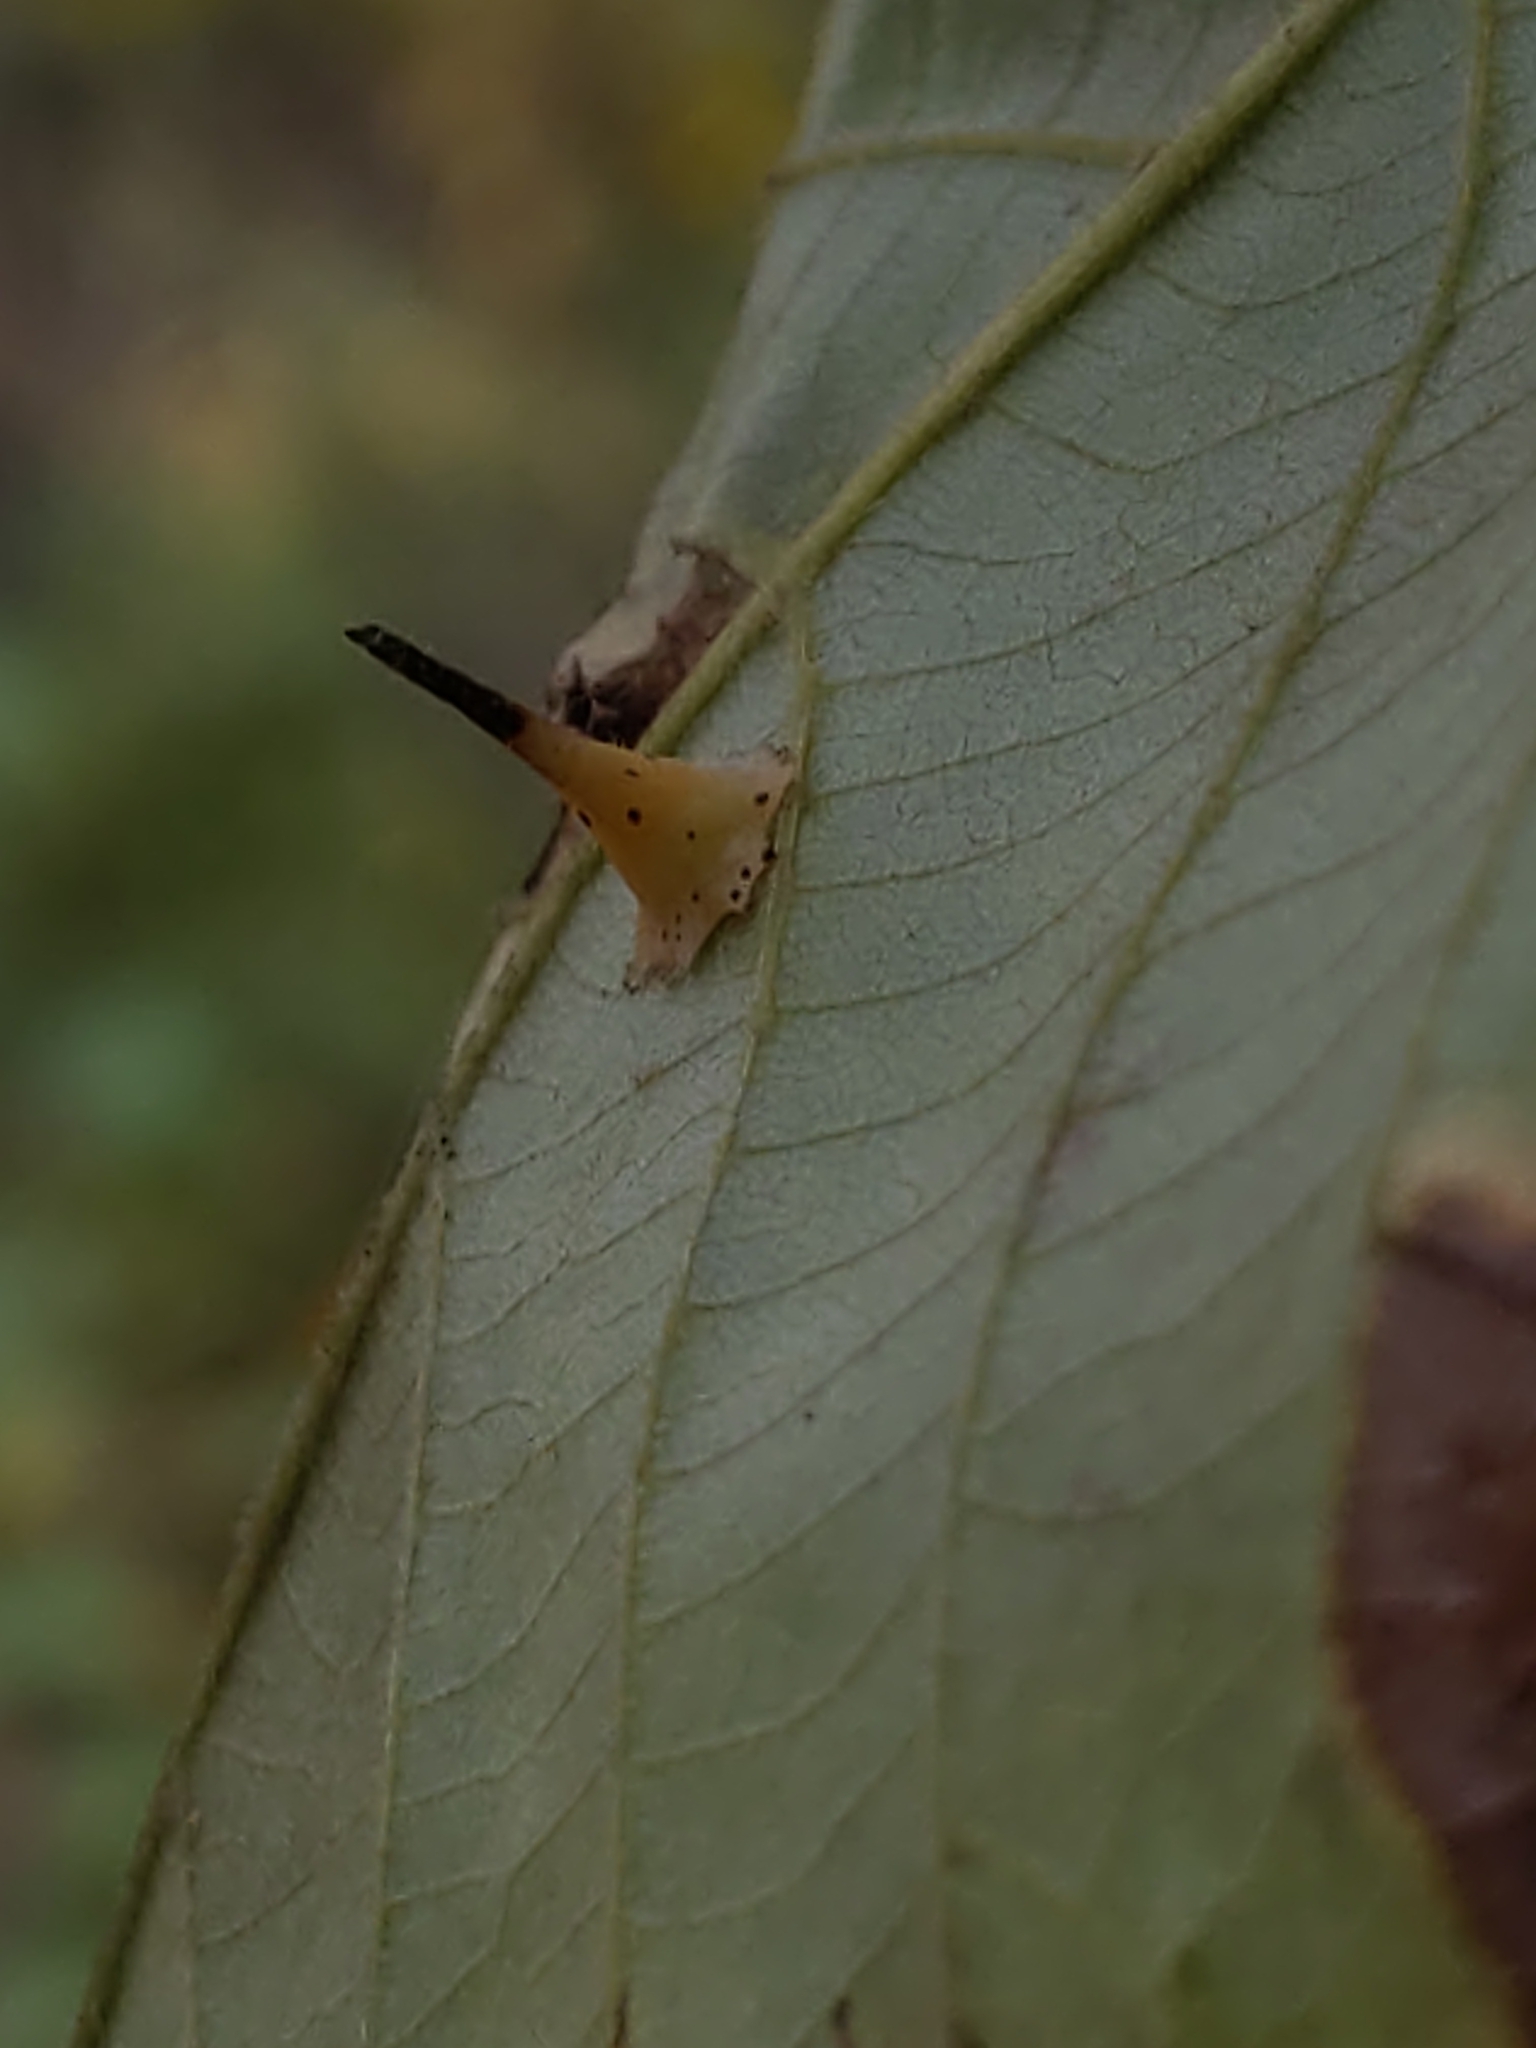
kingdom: Animalia
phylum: Arthropoda
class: Insecta
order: Diptera
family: Cecidomyiidae
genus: Caryomyia
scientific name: Caryomyia stellata
